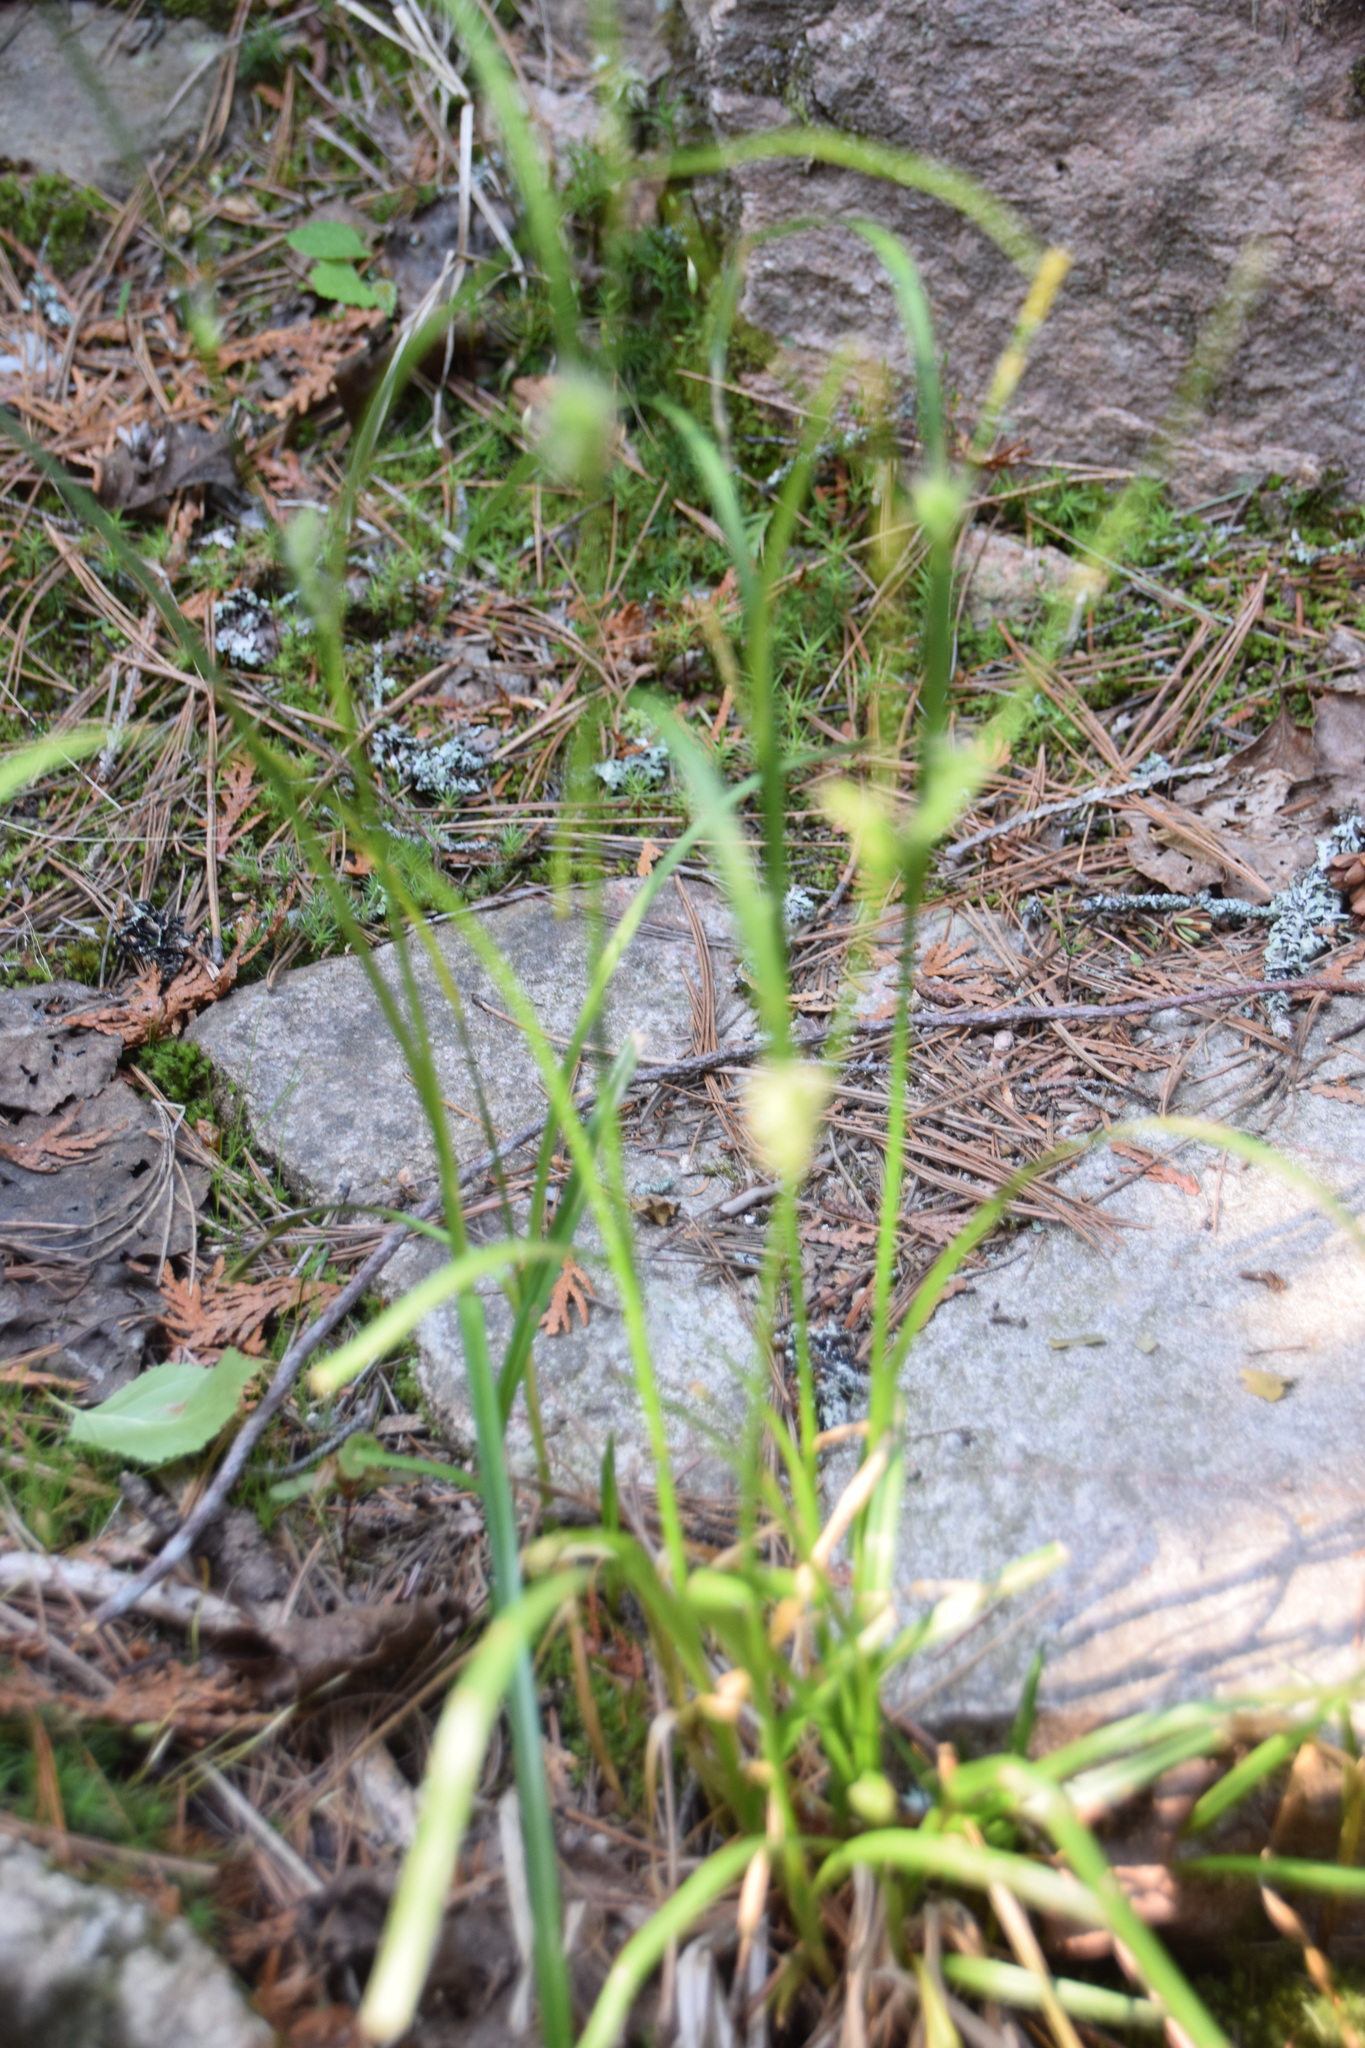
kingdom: Plantae
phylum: Tracheophyta
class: Liliopsida
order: Poales
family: Cyperaceae
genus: Carex
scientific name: Carex houghtoniana
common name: Houghton's sedge
